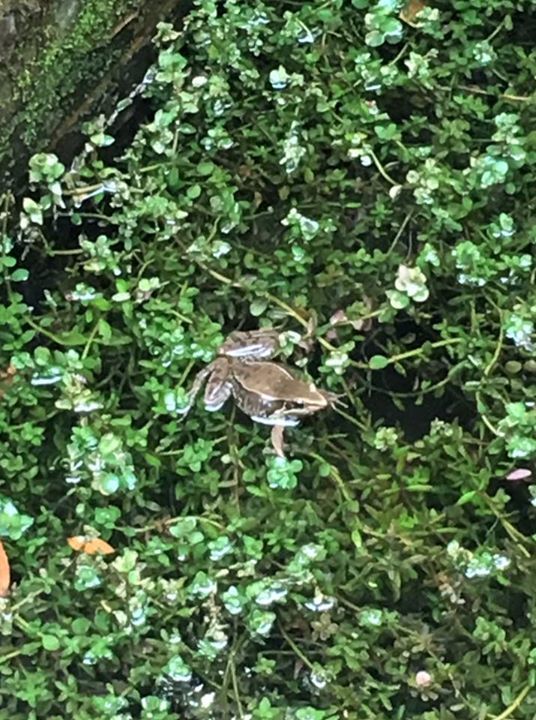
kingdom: Animalia
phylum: Chordata
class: Amphibia
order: Anura
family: Ranidae
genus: Sylvirana
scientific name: Sylvirana guentheri
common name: Guenther's amoy frog
